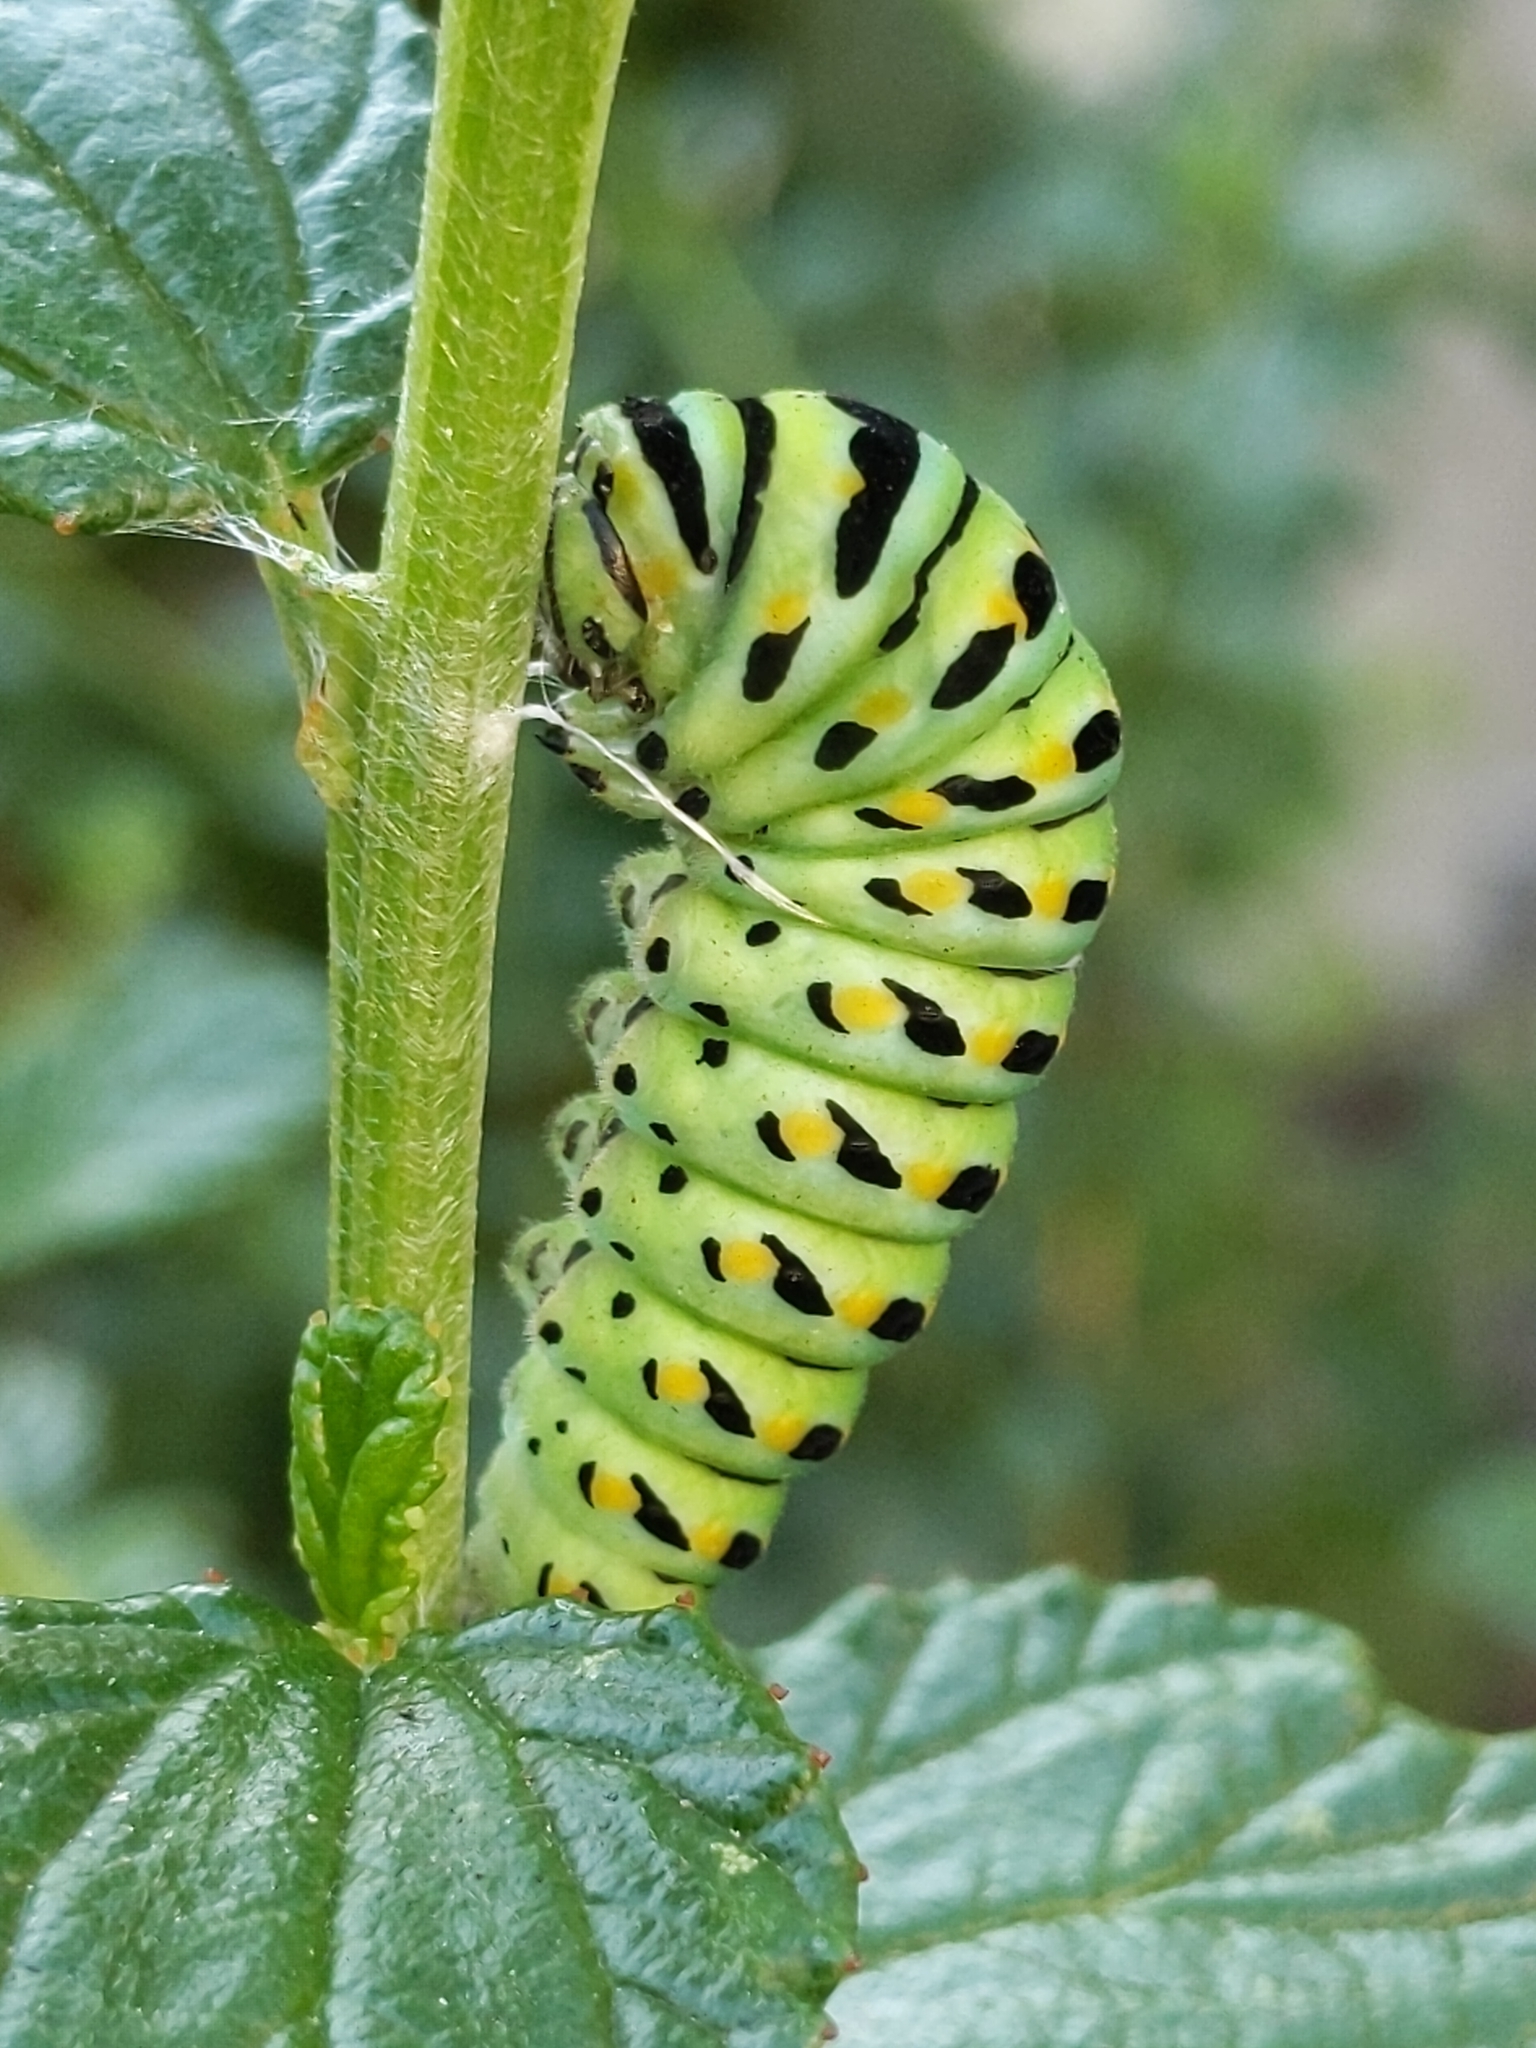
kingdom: Animalia
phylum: Arthropoda
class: Insecta
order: Lepidoptera
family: Papilionidae
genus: Papilio
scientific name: Papilio zelicaon
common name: Anise swallowtail
